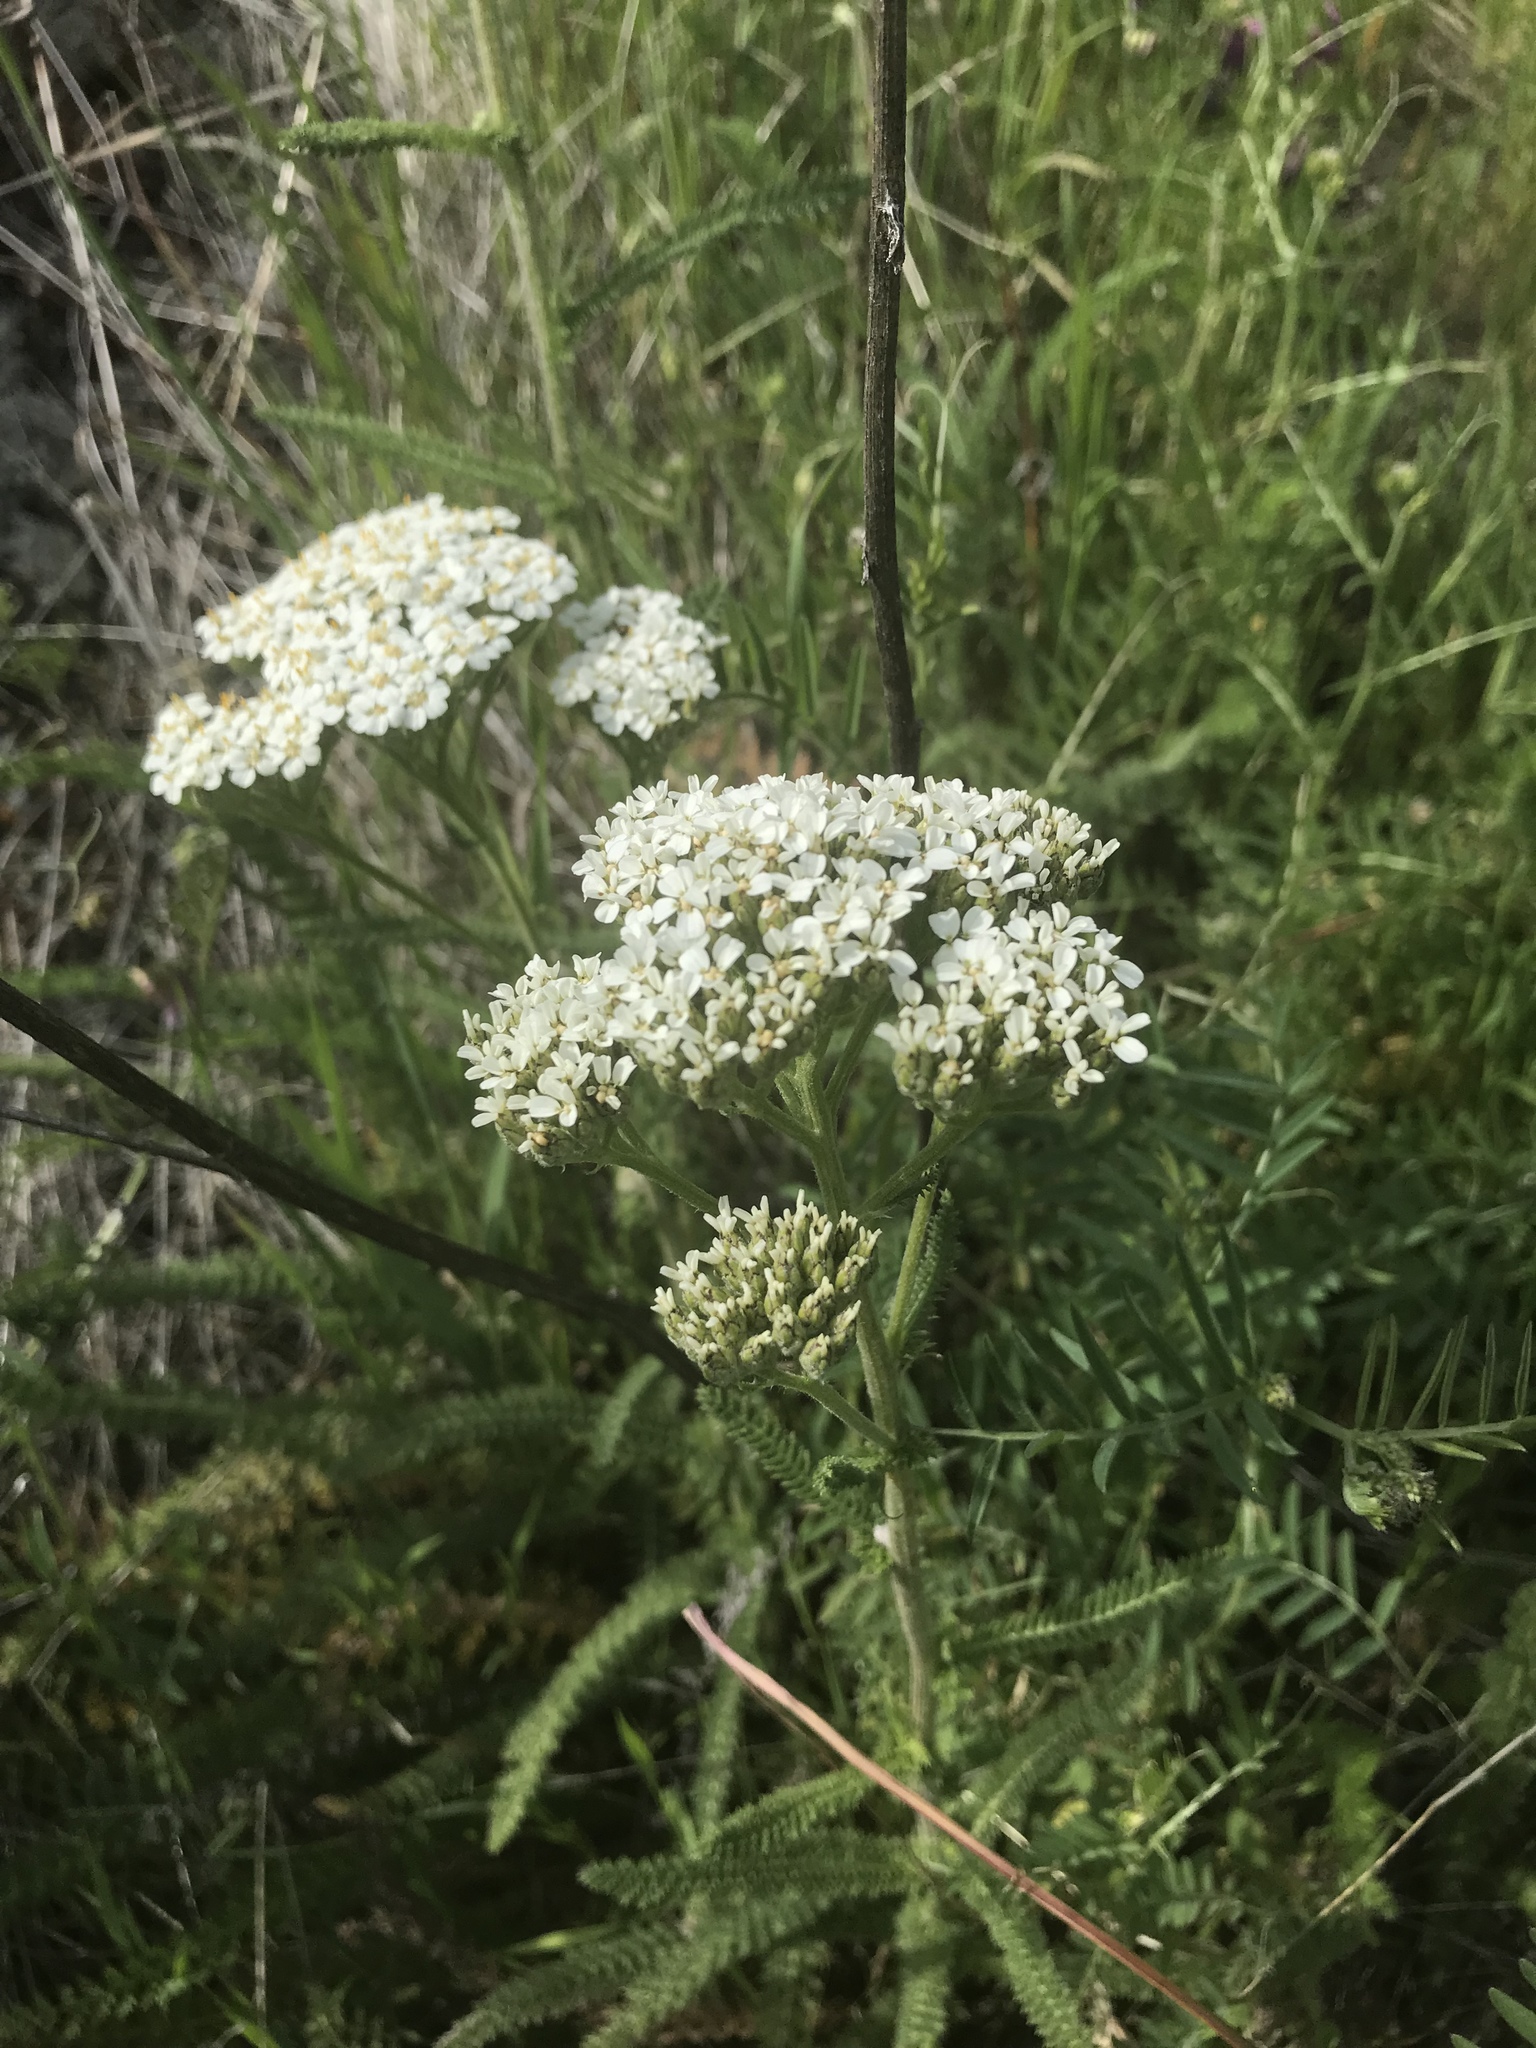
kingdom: Plantae
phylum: Tracheophyta
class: Magnoliopsida
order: Asterales
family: Asteraceae
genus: Achillea
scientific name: Achillea millefolium
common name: Yarrow
